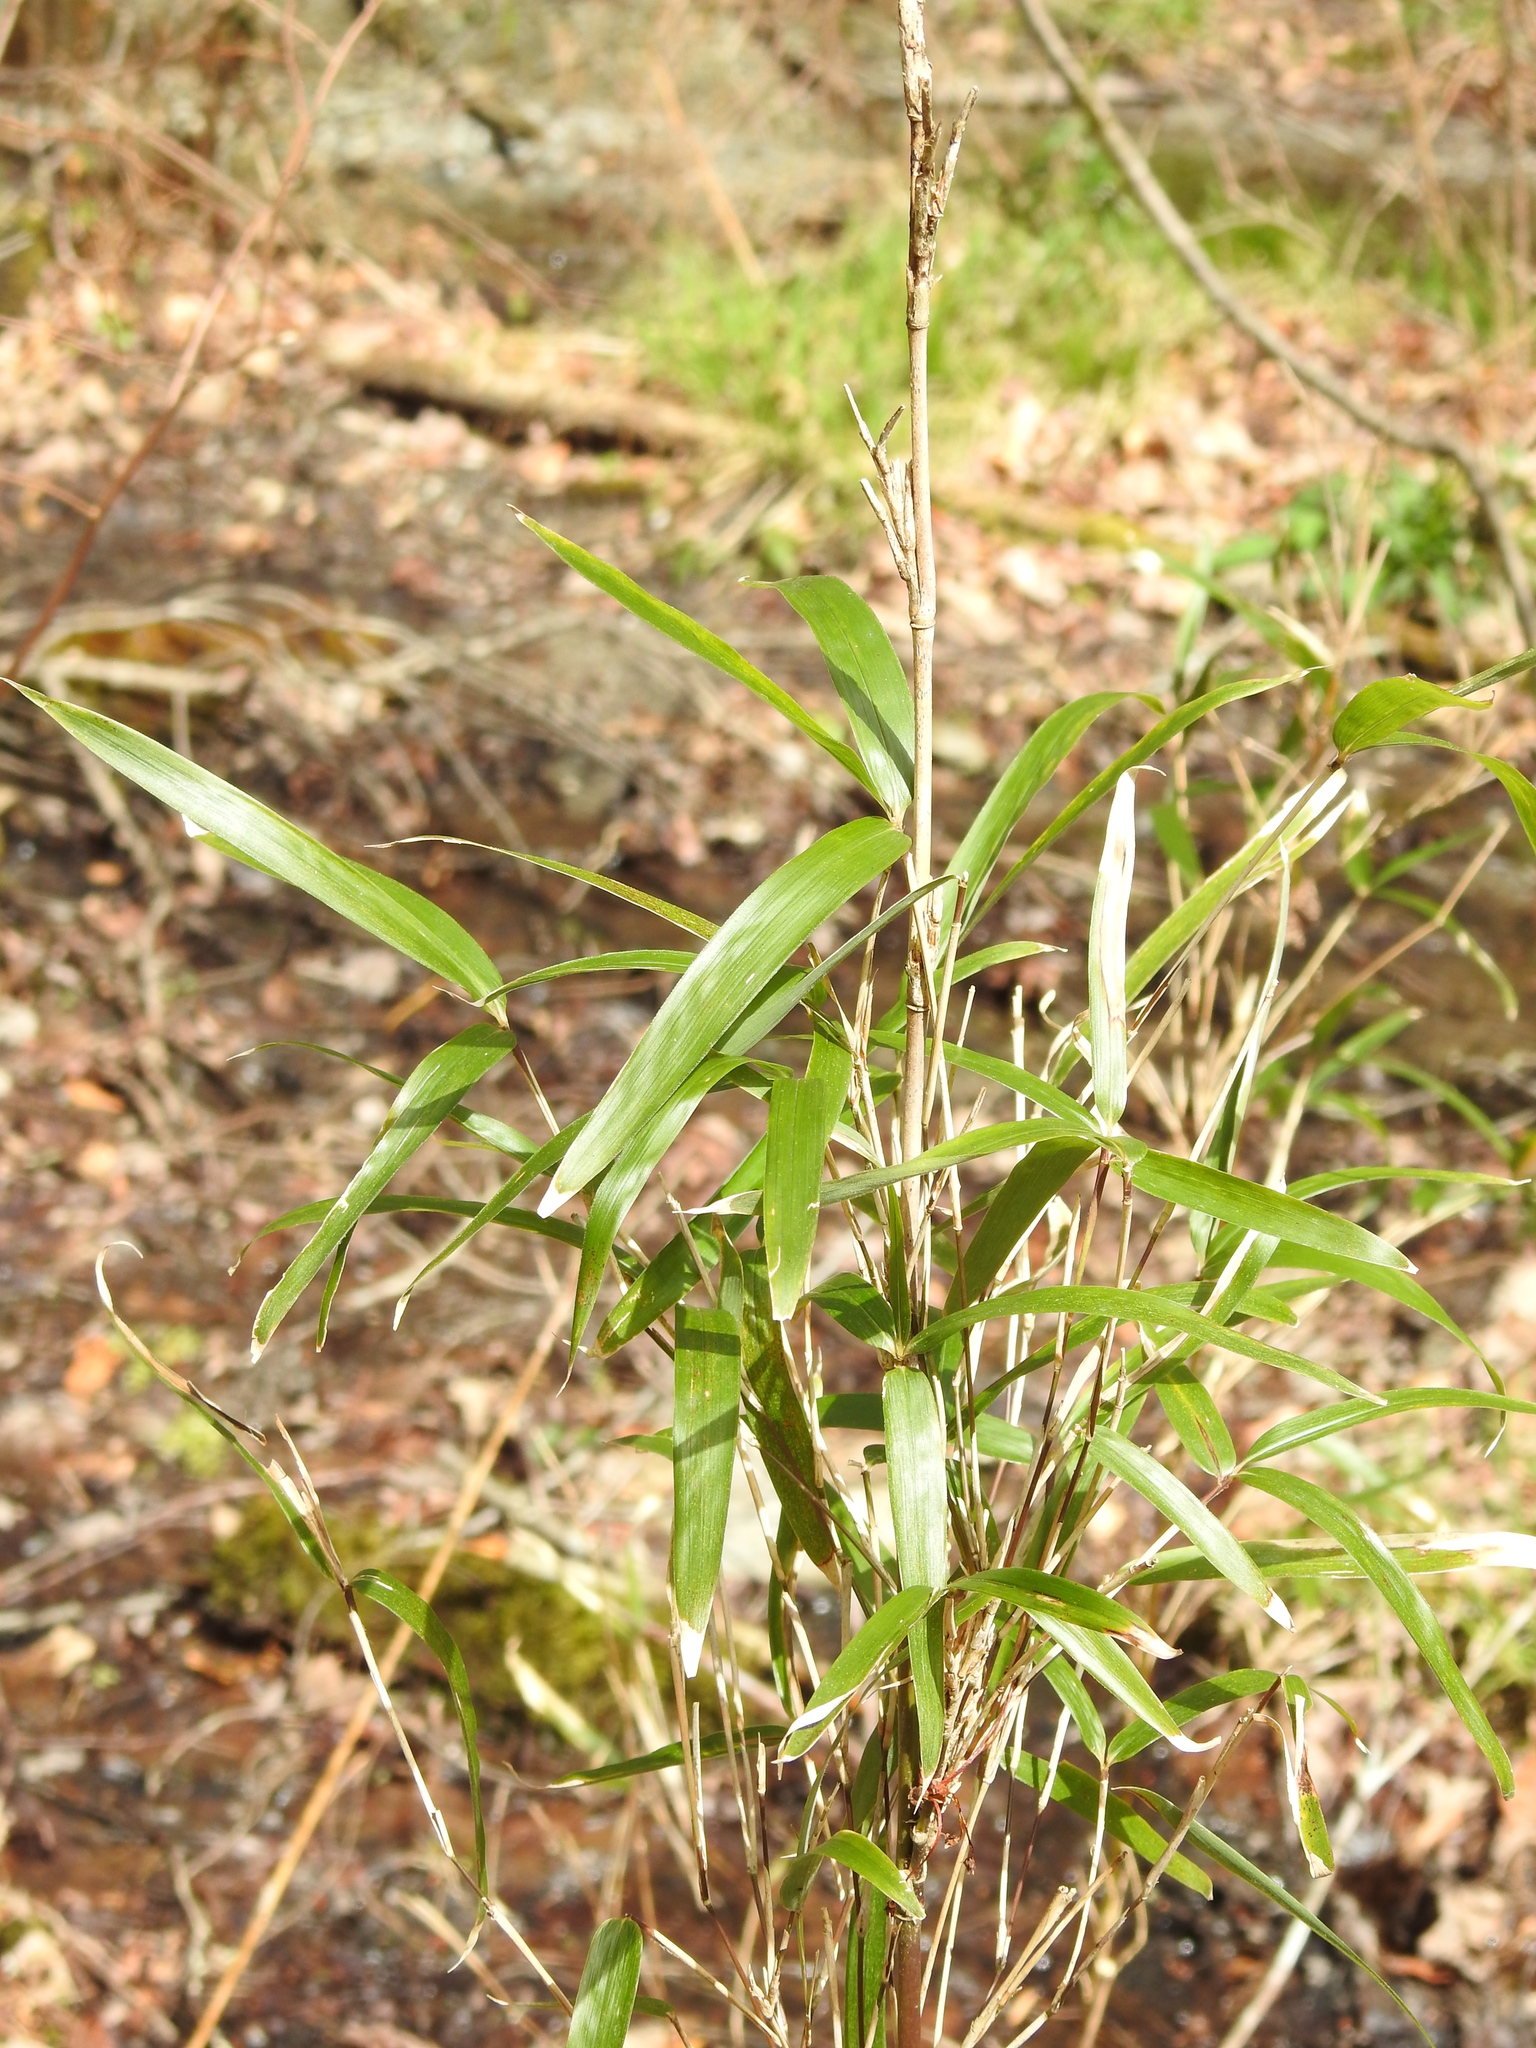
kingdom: Plantae
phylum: Tracheophyta
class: Liliopsida
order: Poales
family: Poaceae
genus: Arundinaria
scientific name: Arundinaria gigantea
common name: Giant cane
